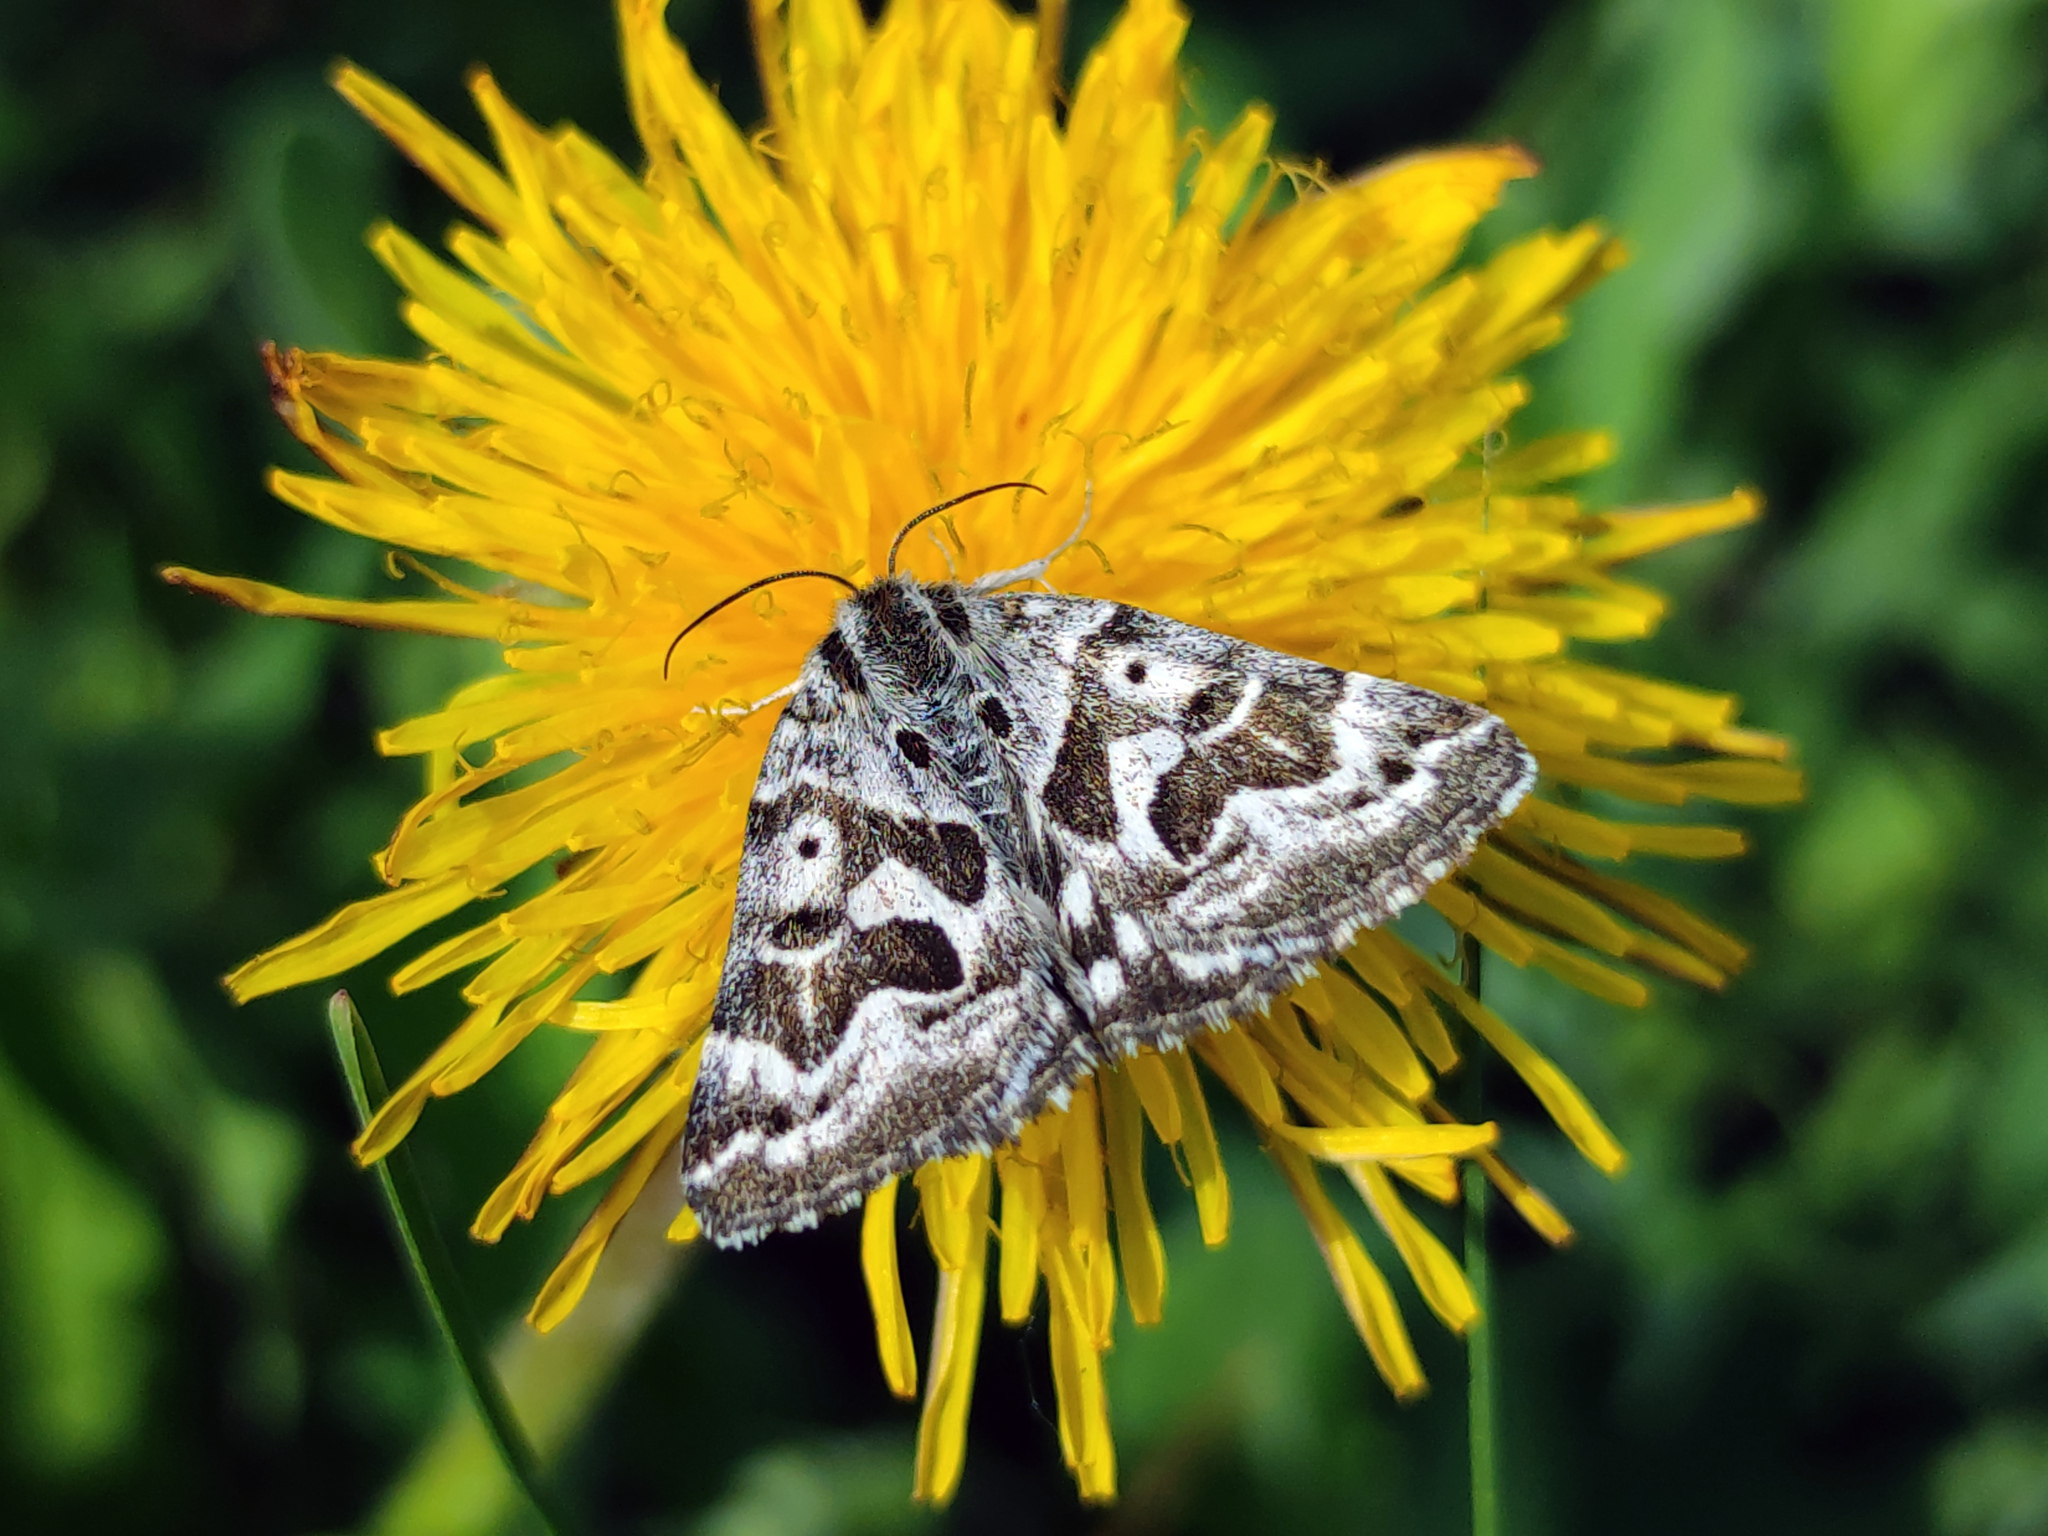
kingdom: Animalia
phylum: Arthropoda
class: Insecta
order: Lepidoptera
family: Erebidae
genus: Callistege
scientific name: Callistege mi
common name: Mother shipton
